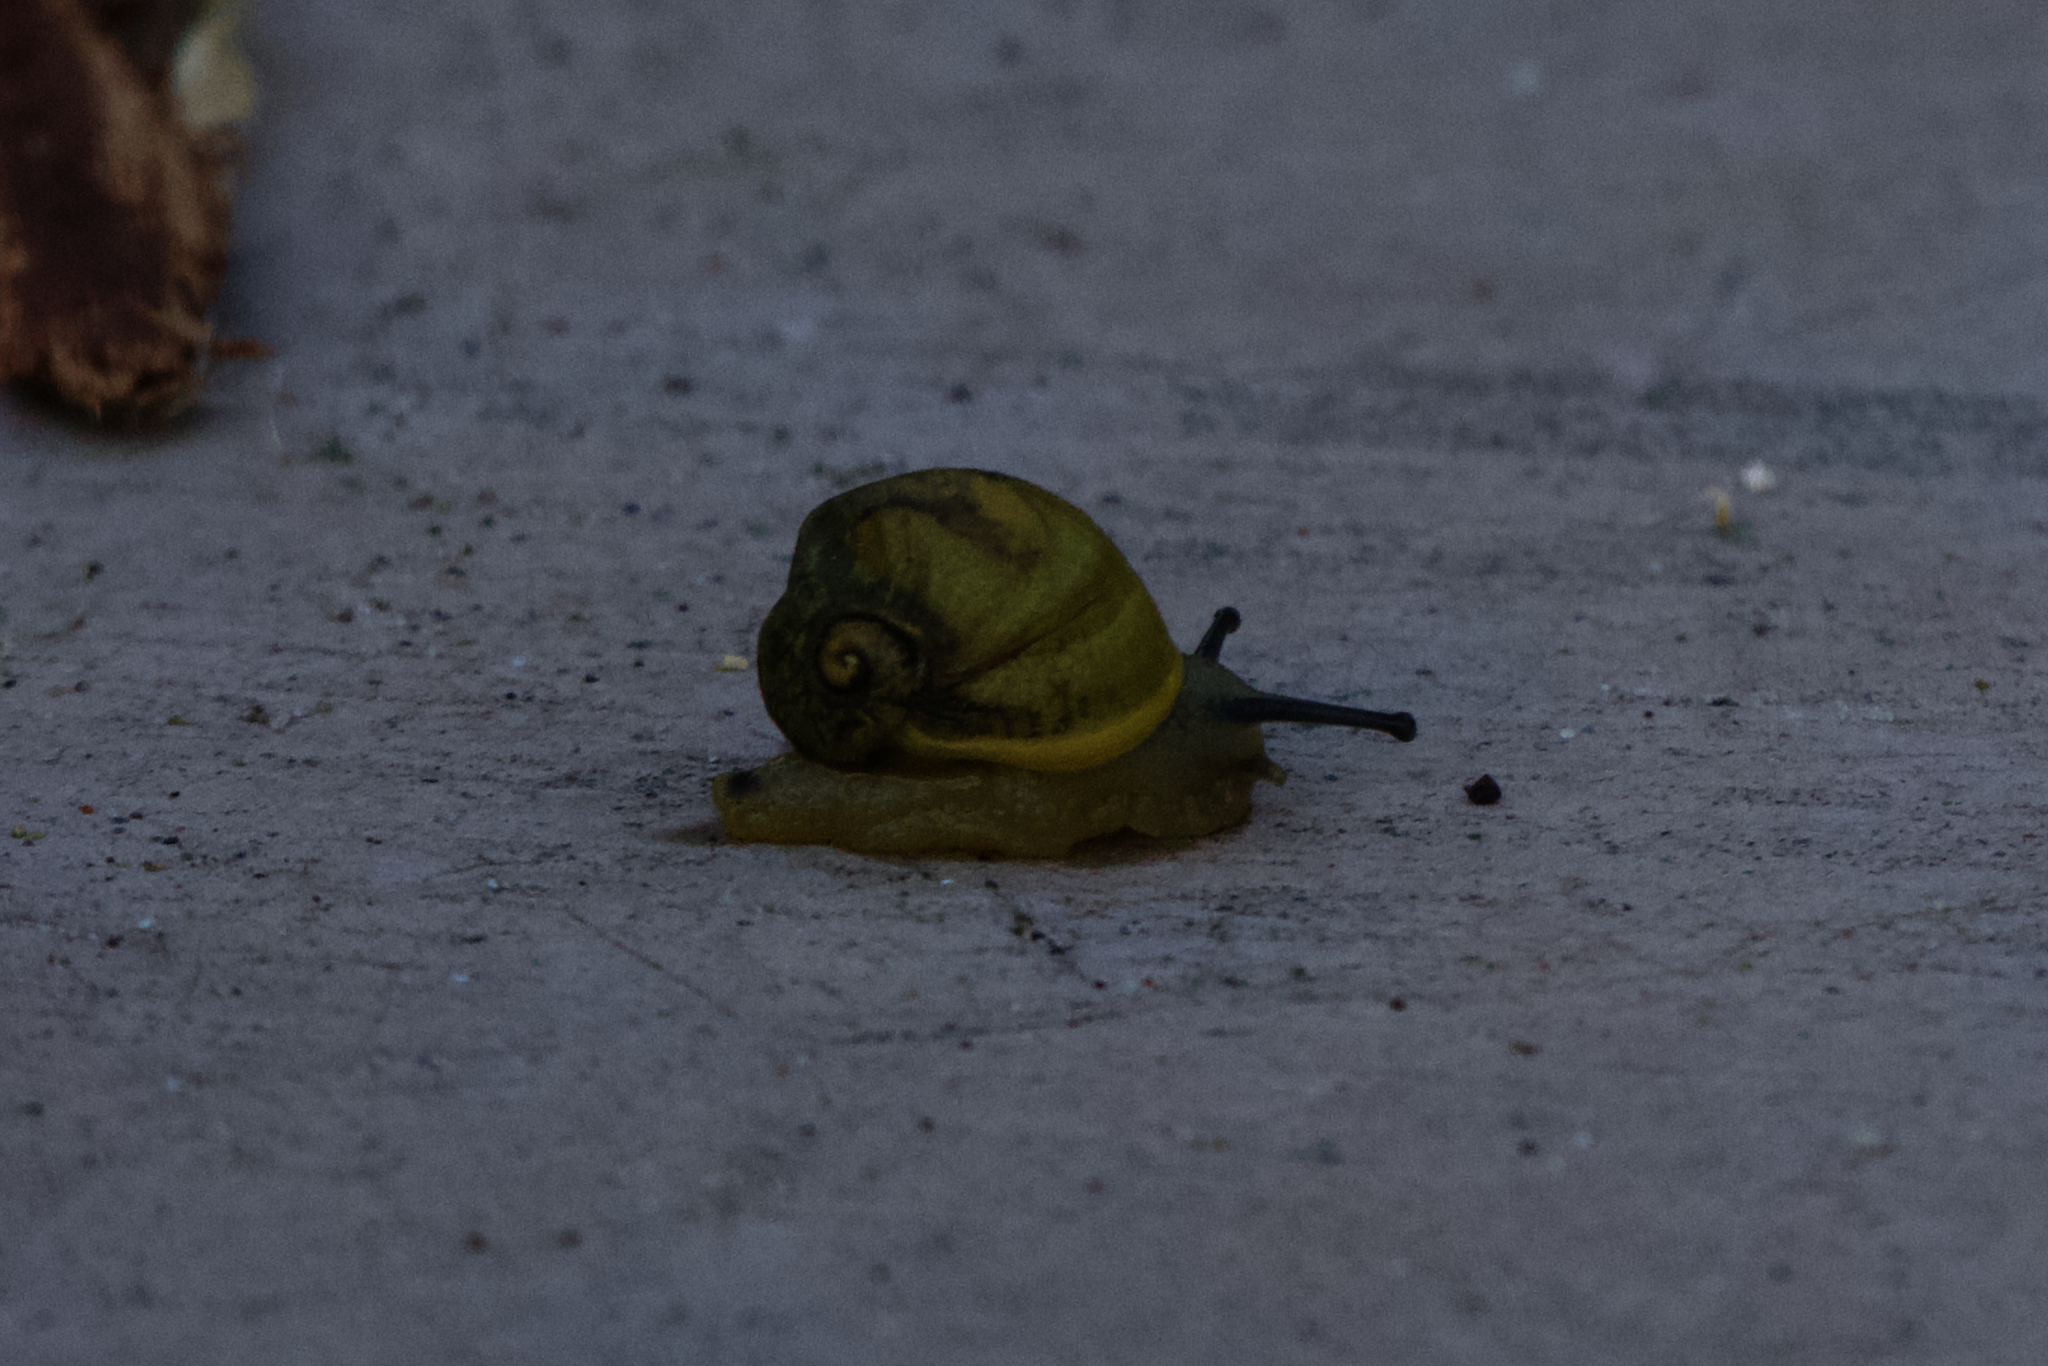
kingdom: Animalia
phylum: Mollusca
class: Gastropoda
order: Stylommatophora
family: Helicidae
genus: Cantareus
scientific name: Cantareus apertus
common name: Green gardensnail
